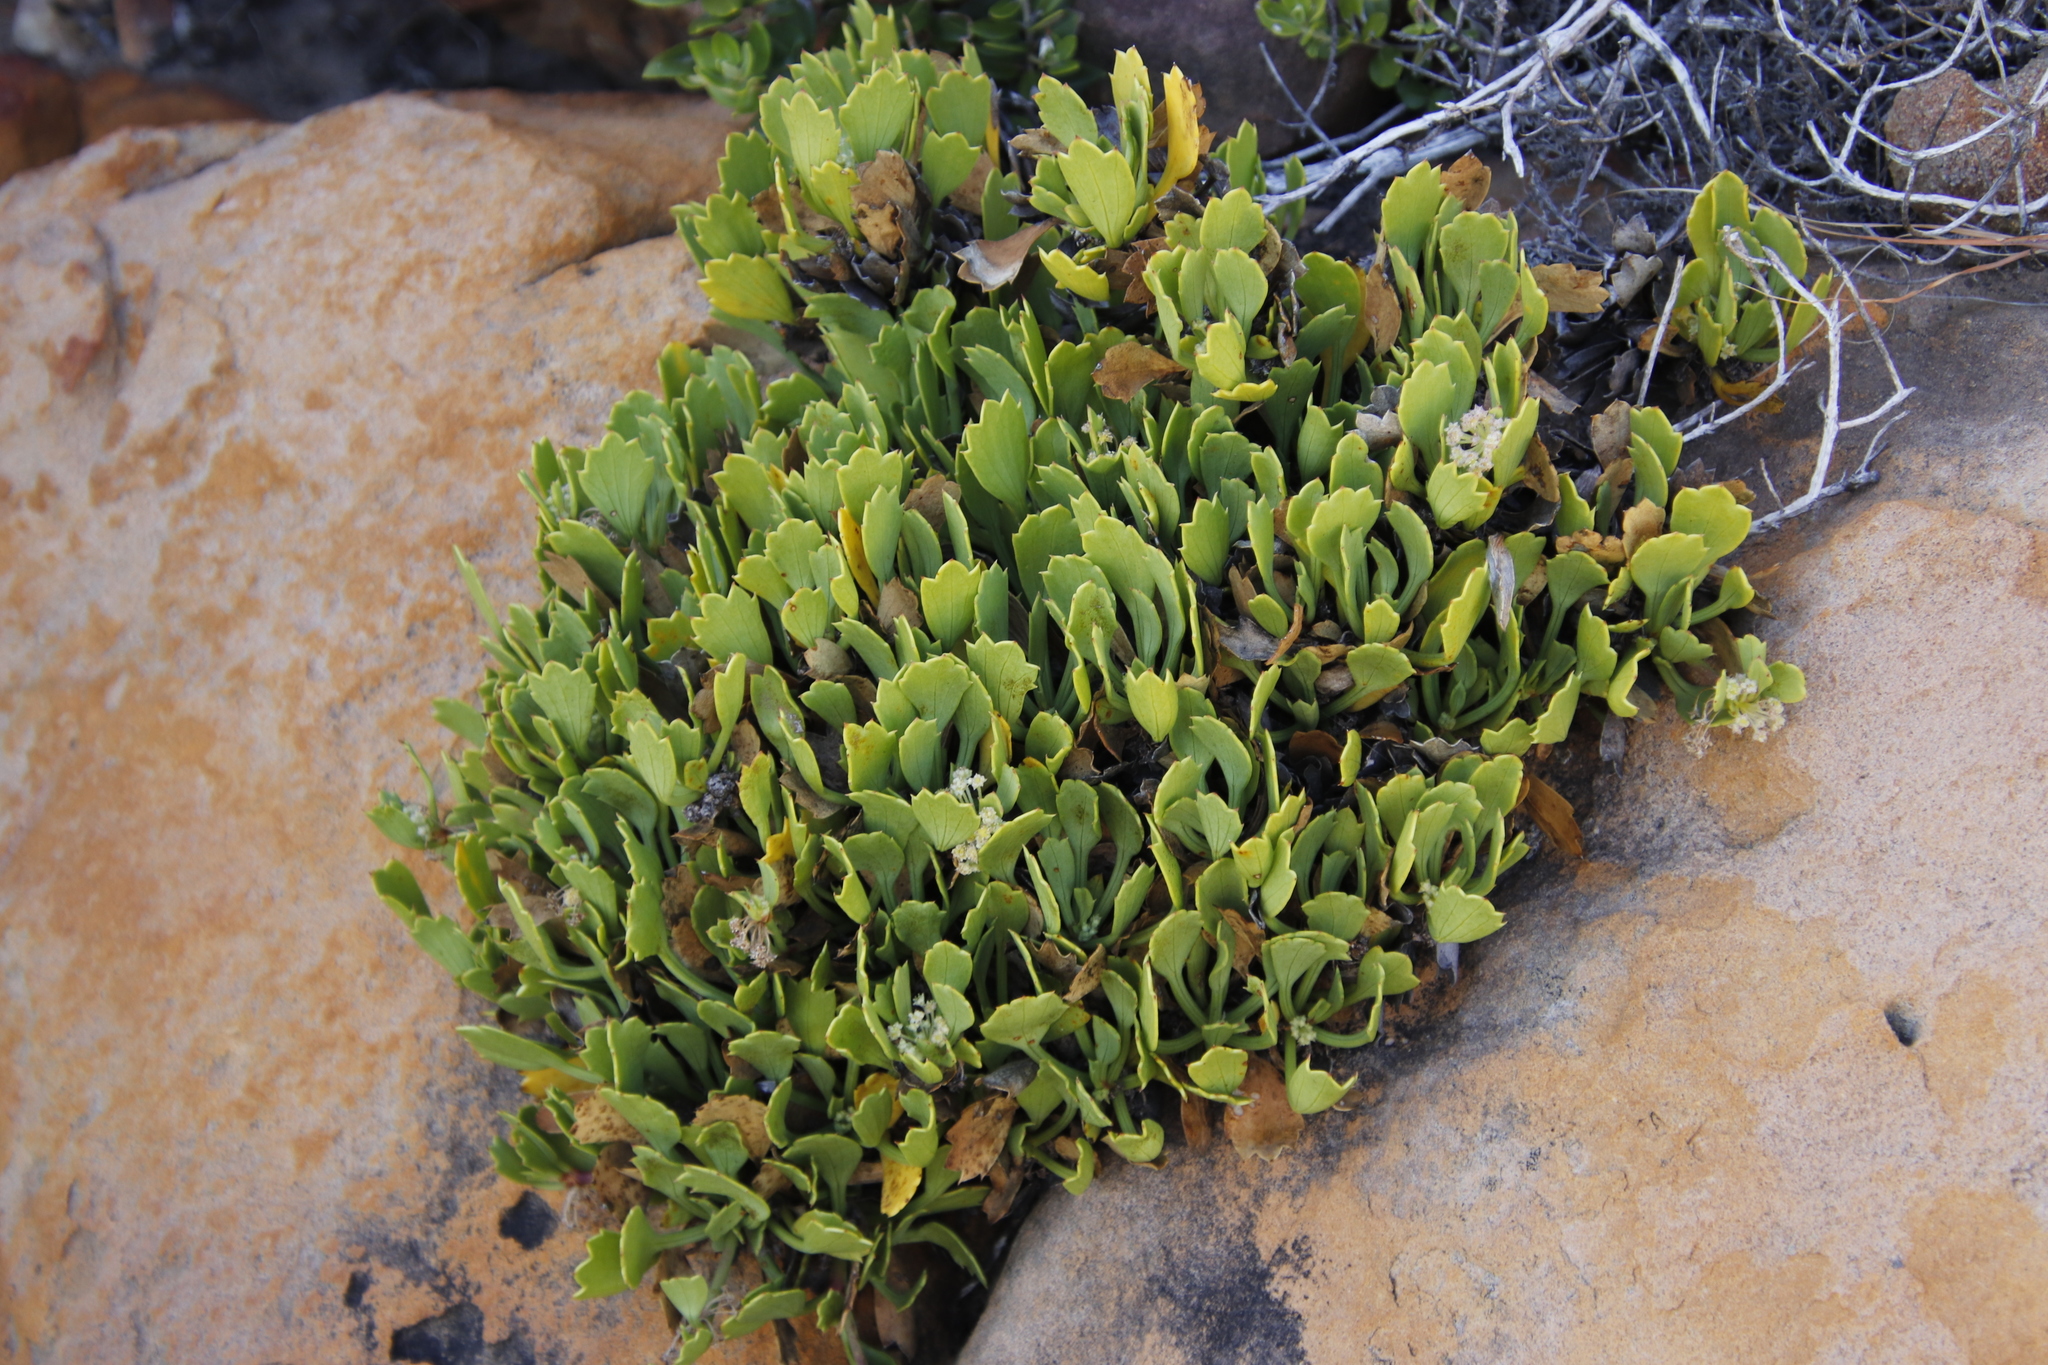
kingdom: Plantae
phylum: Tracheophyta
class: Magnoliopsida
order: Apiales
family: Apiaceae
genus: Centella
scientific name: Centella triloba
